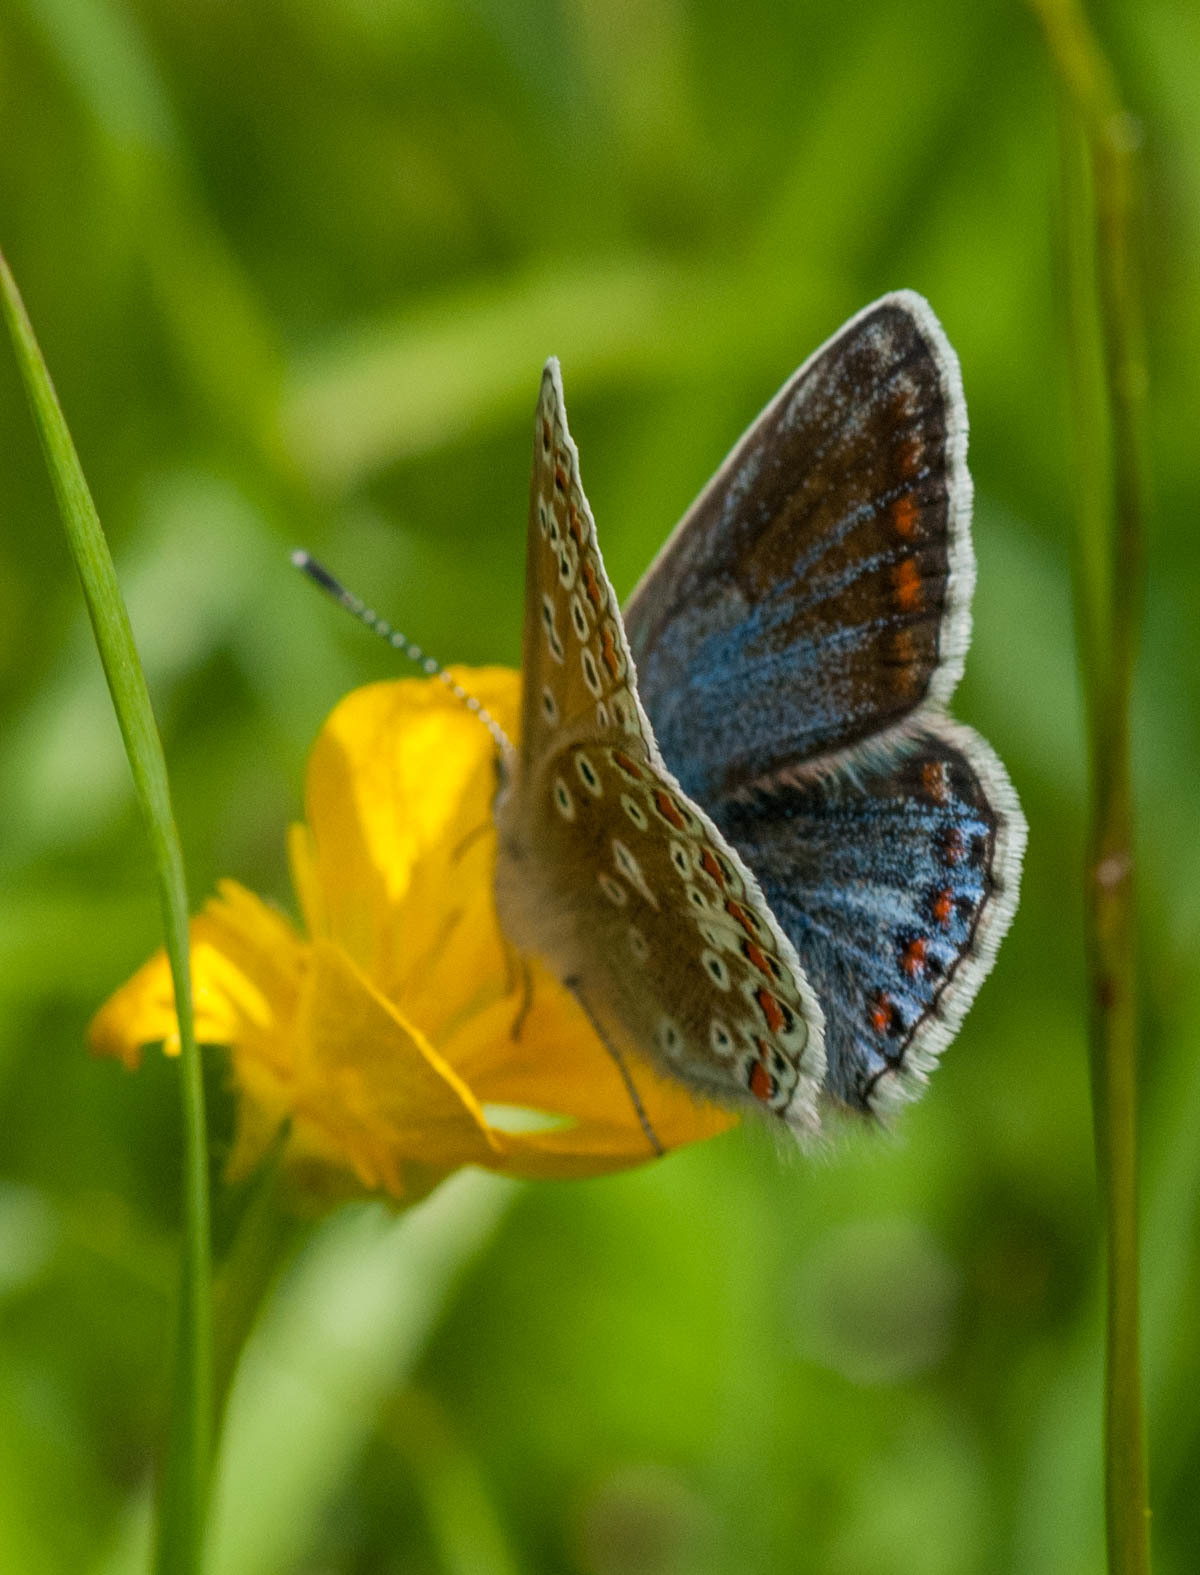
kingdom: Animalia
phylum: Arthropoda
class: Insecta
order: Lepidoptera
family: Lycaenidae
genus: Polyommatus
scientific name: Polyommatus icarus
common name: Common blue
